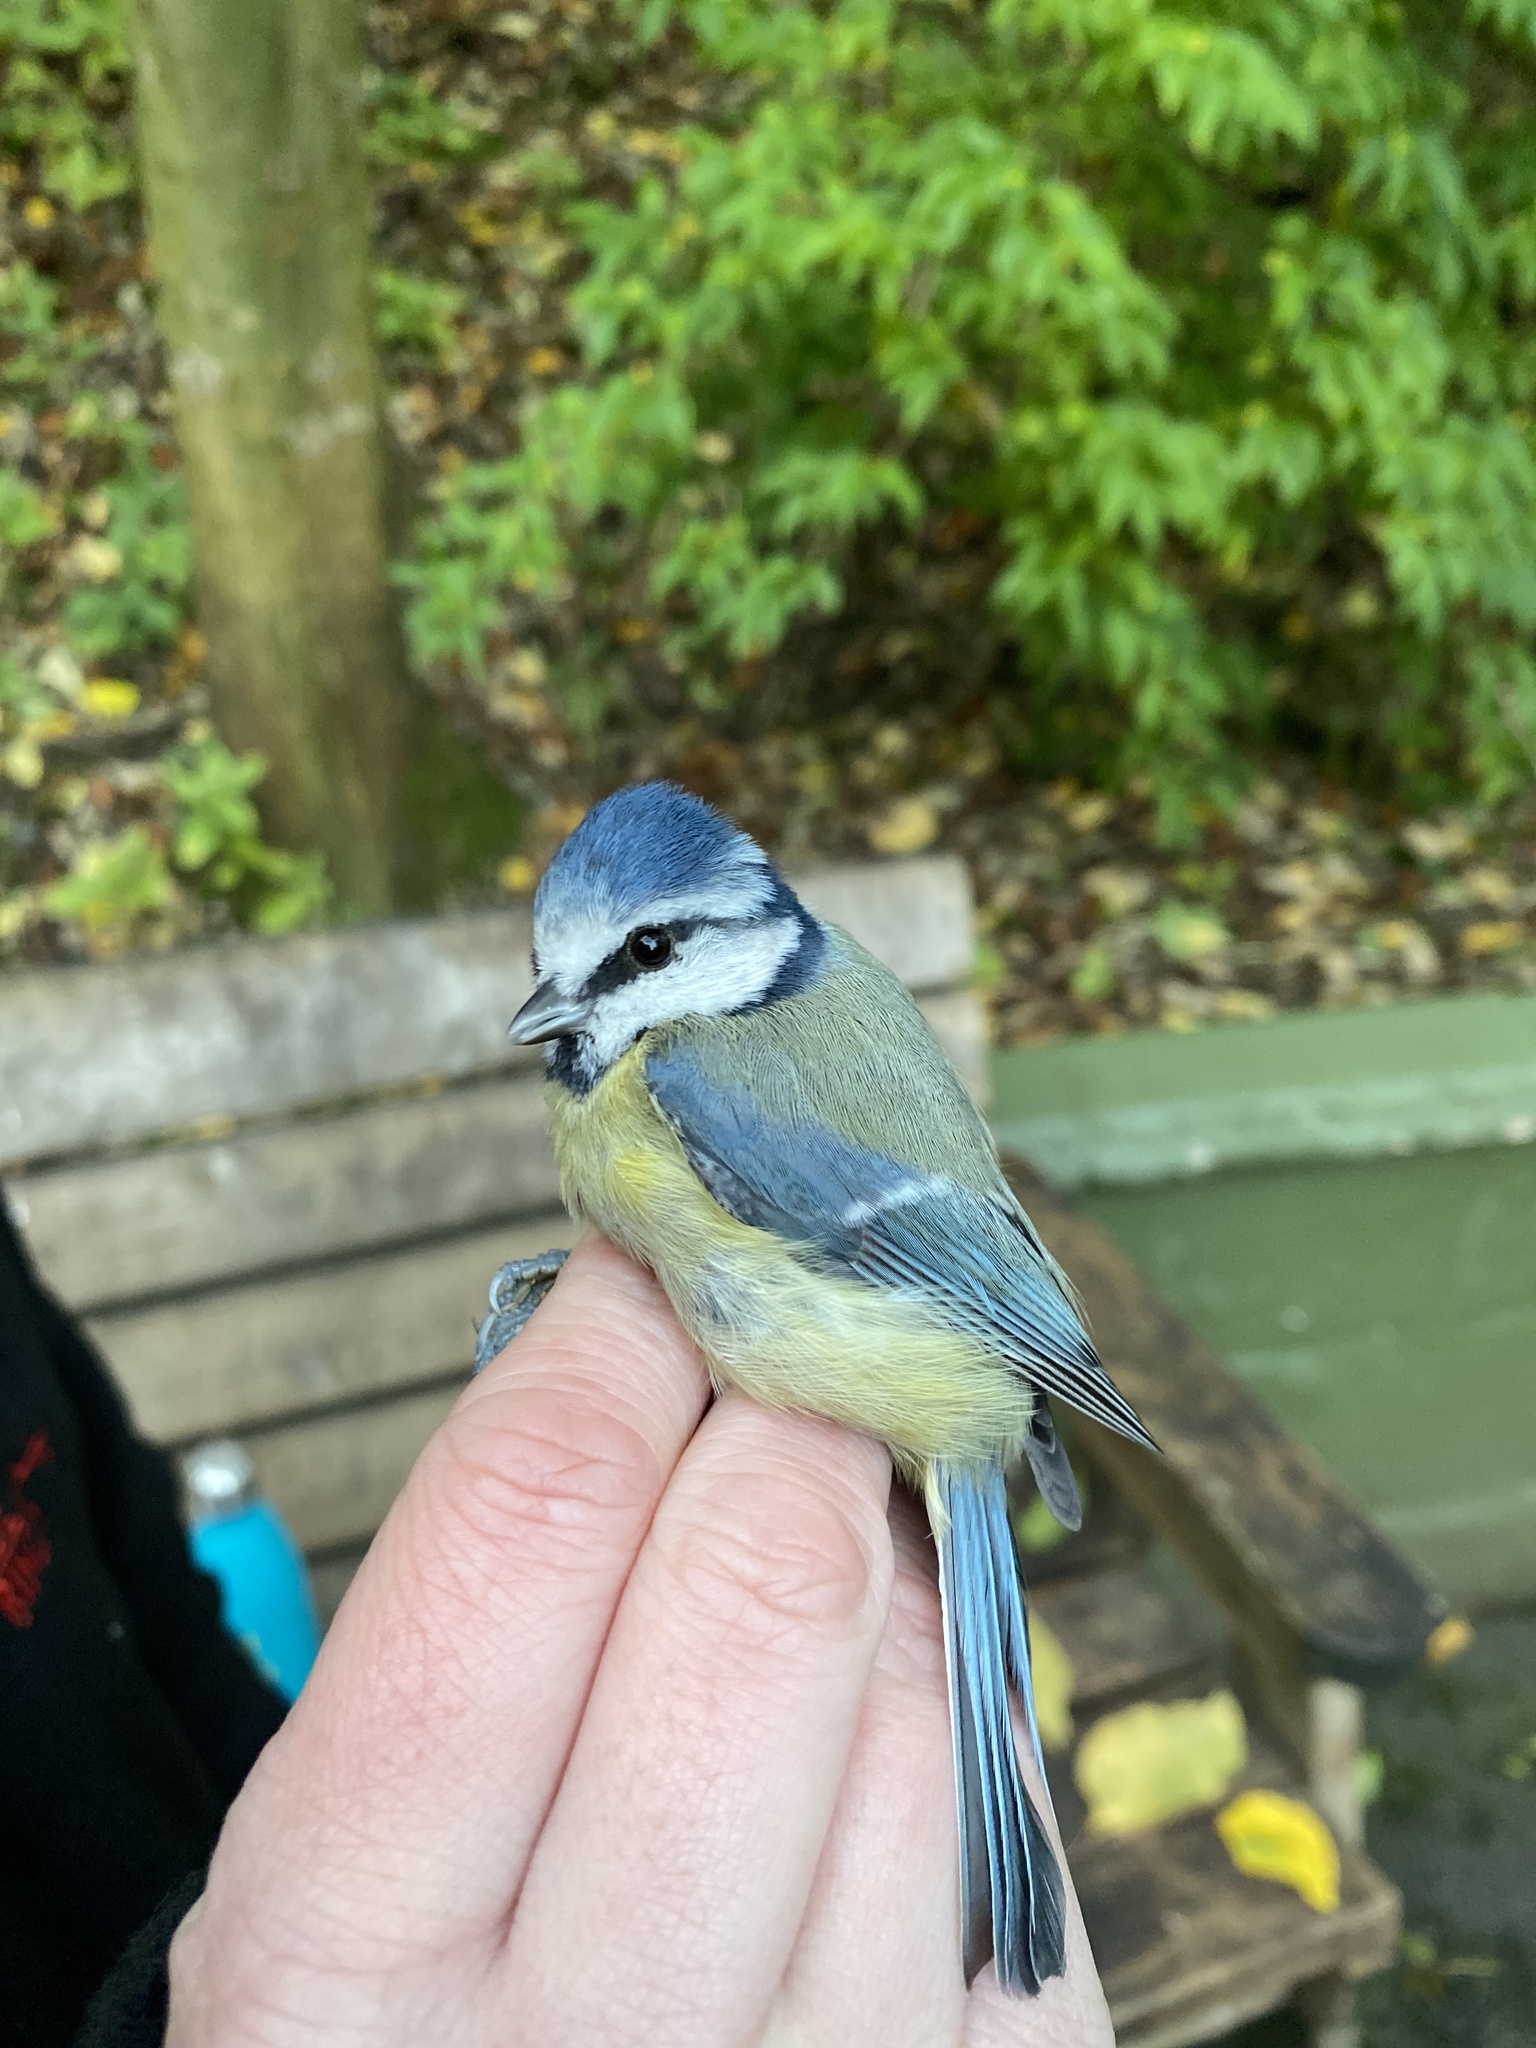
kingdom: Animalia
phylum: Chordata
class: Aves
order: Passeriformes
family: Paridae
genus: Cyanistes
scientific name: Cyanistes caeruleus
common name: Eurasian blue tit
